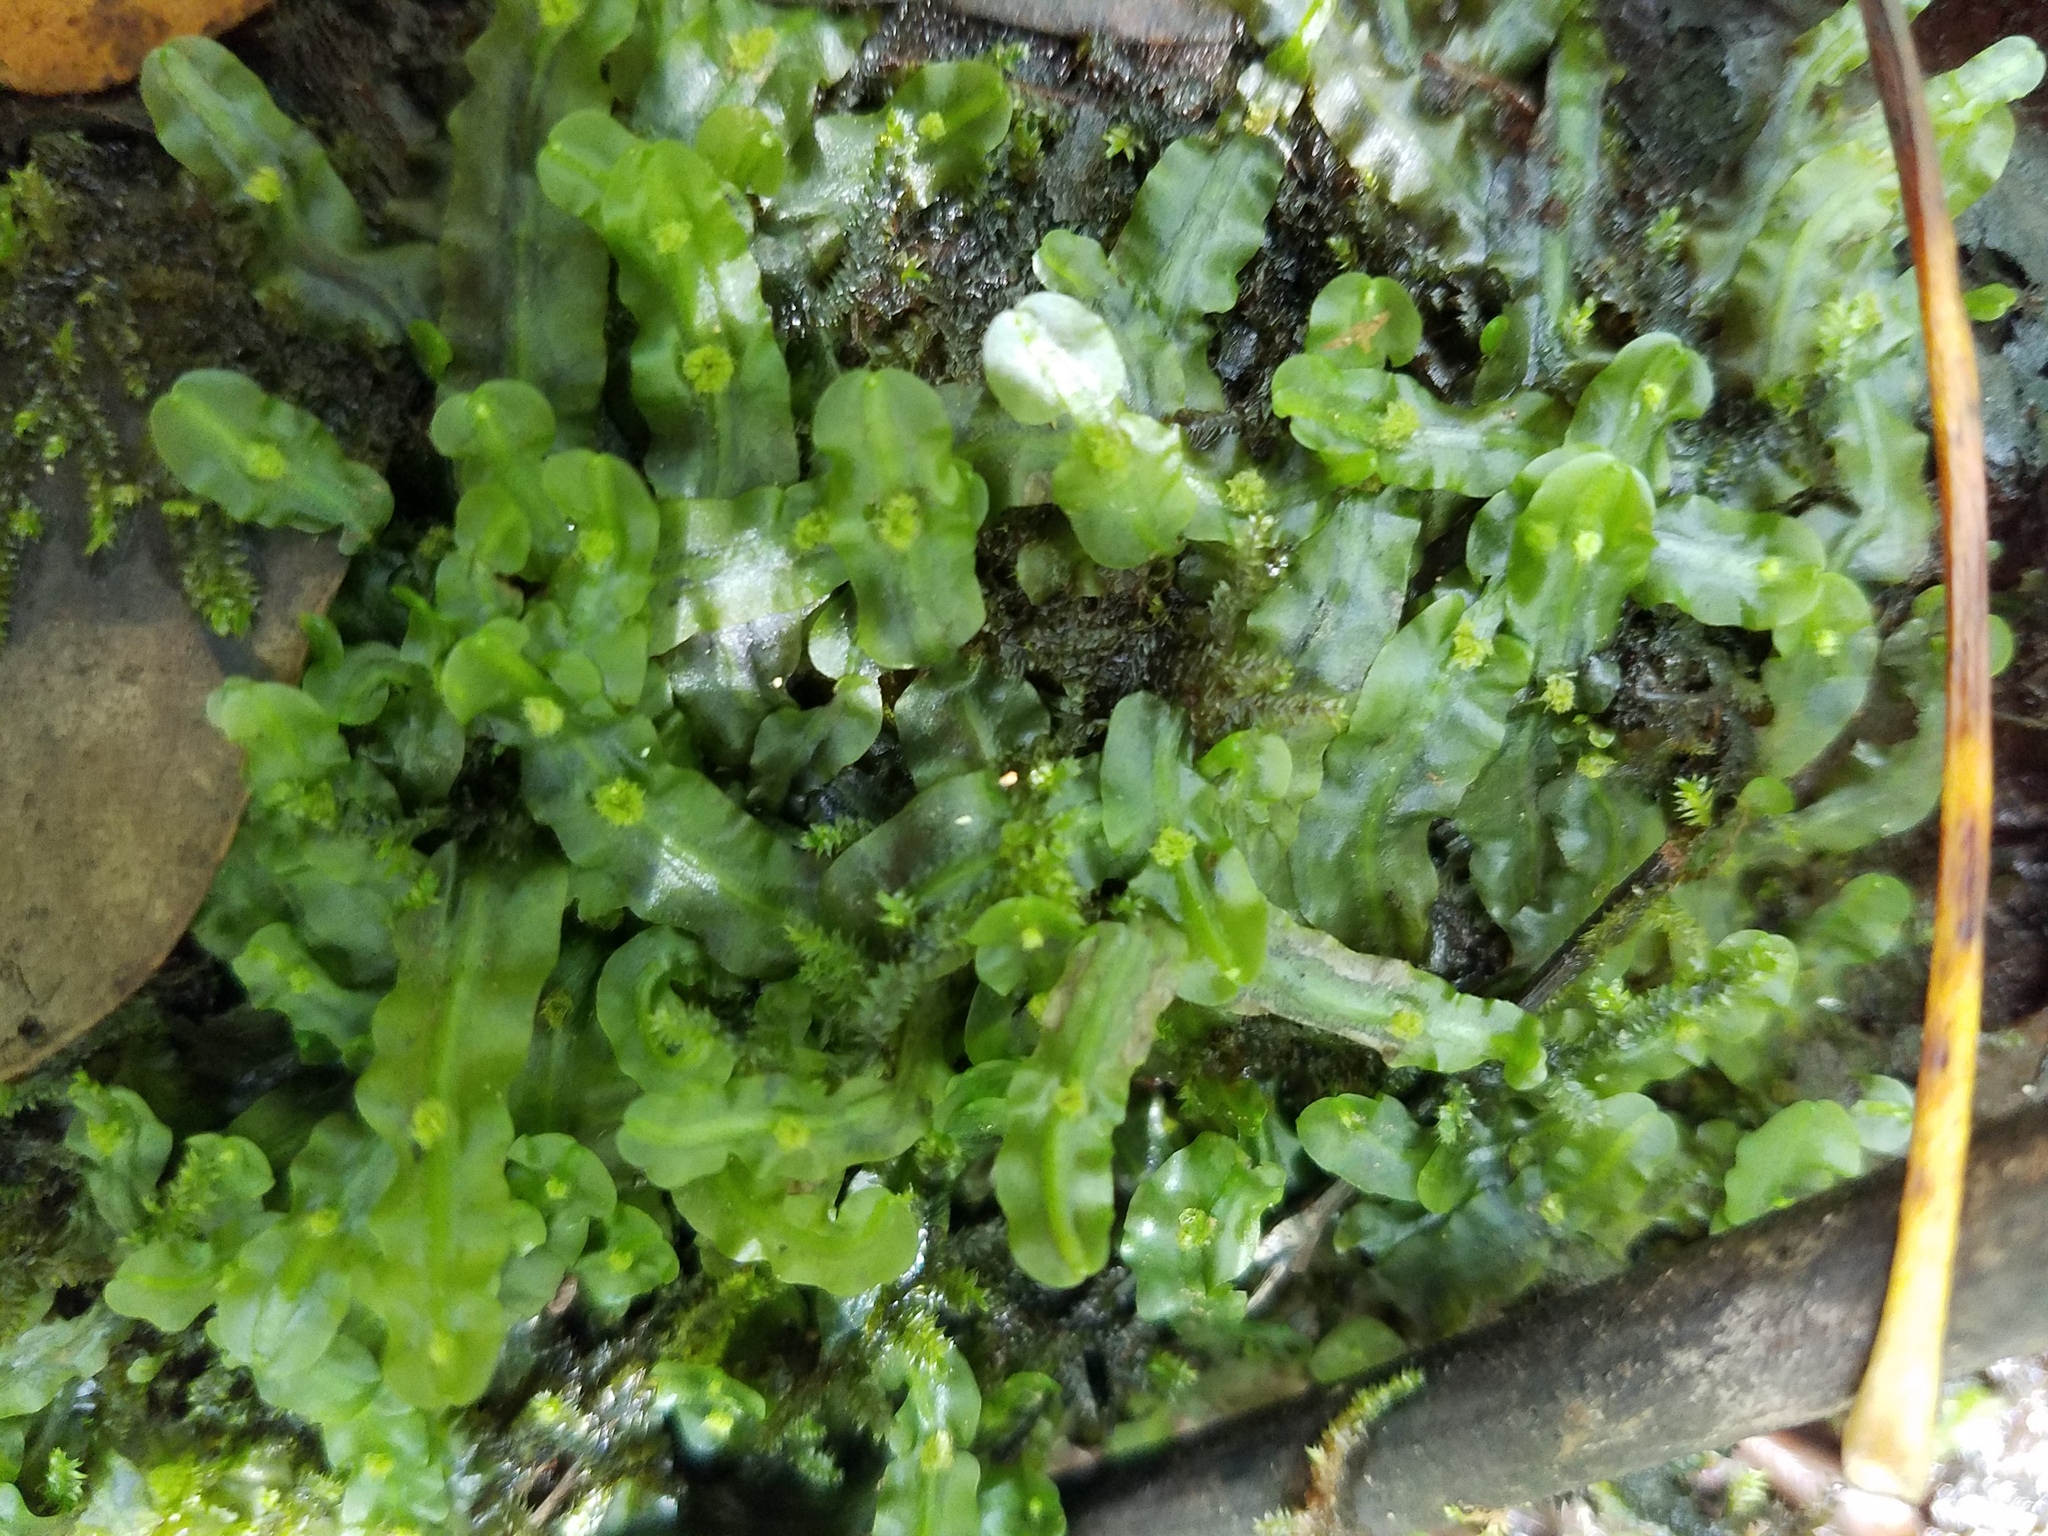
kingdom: Plantae
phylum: Marchantiophyta
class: Jungermanniopsida
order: Pallaviciniales
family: Pallaviciniaceae
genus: Pallavicinia
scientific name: Pallavicinia lyellii
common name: Veilwort
